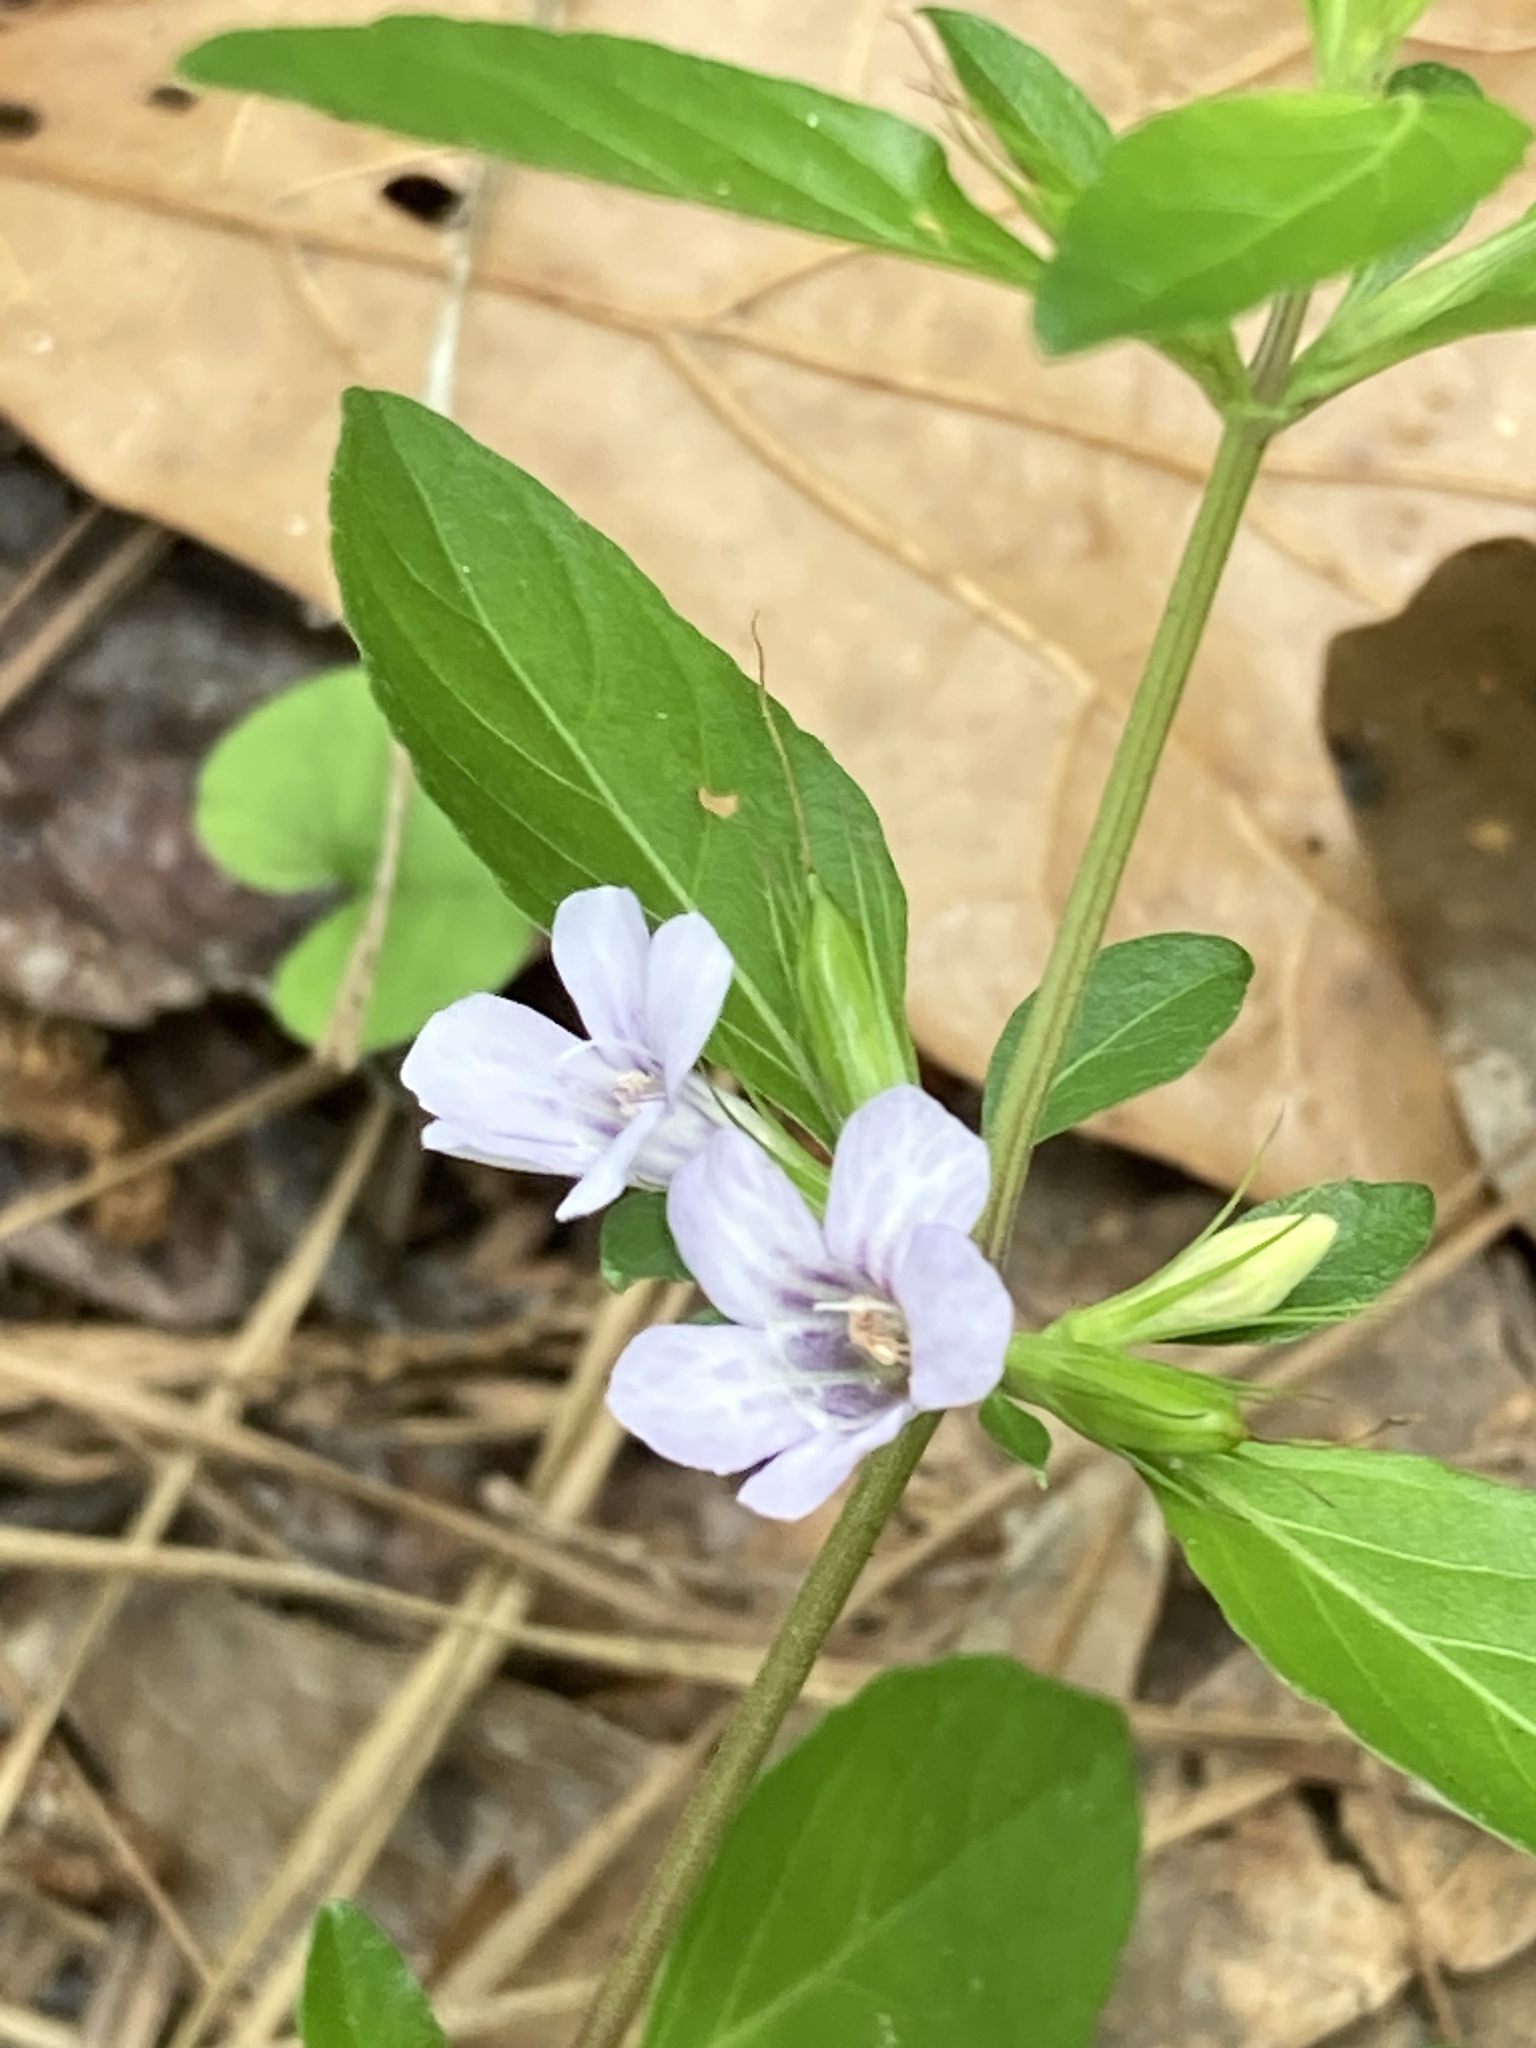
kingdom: Plantae
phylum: Tracheophyta
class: Magnoliopsida
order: Lamiales
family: Acanthaceae
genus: Dyschoriste
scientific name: Dyschoriste oblongifolia
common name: Blue twinflower
